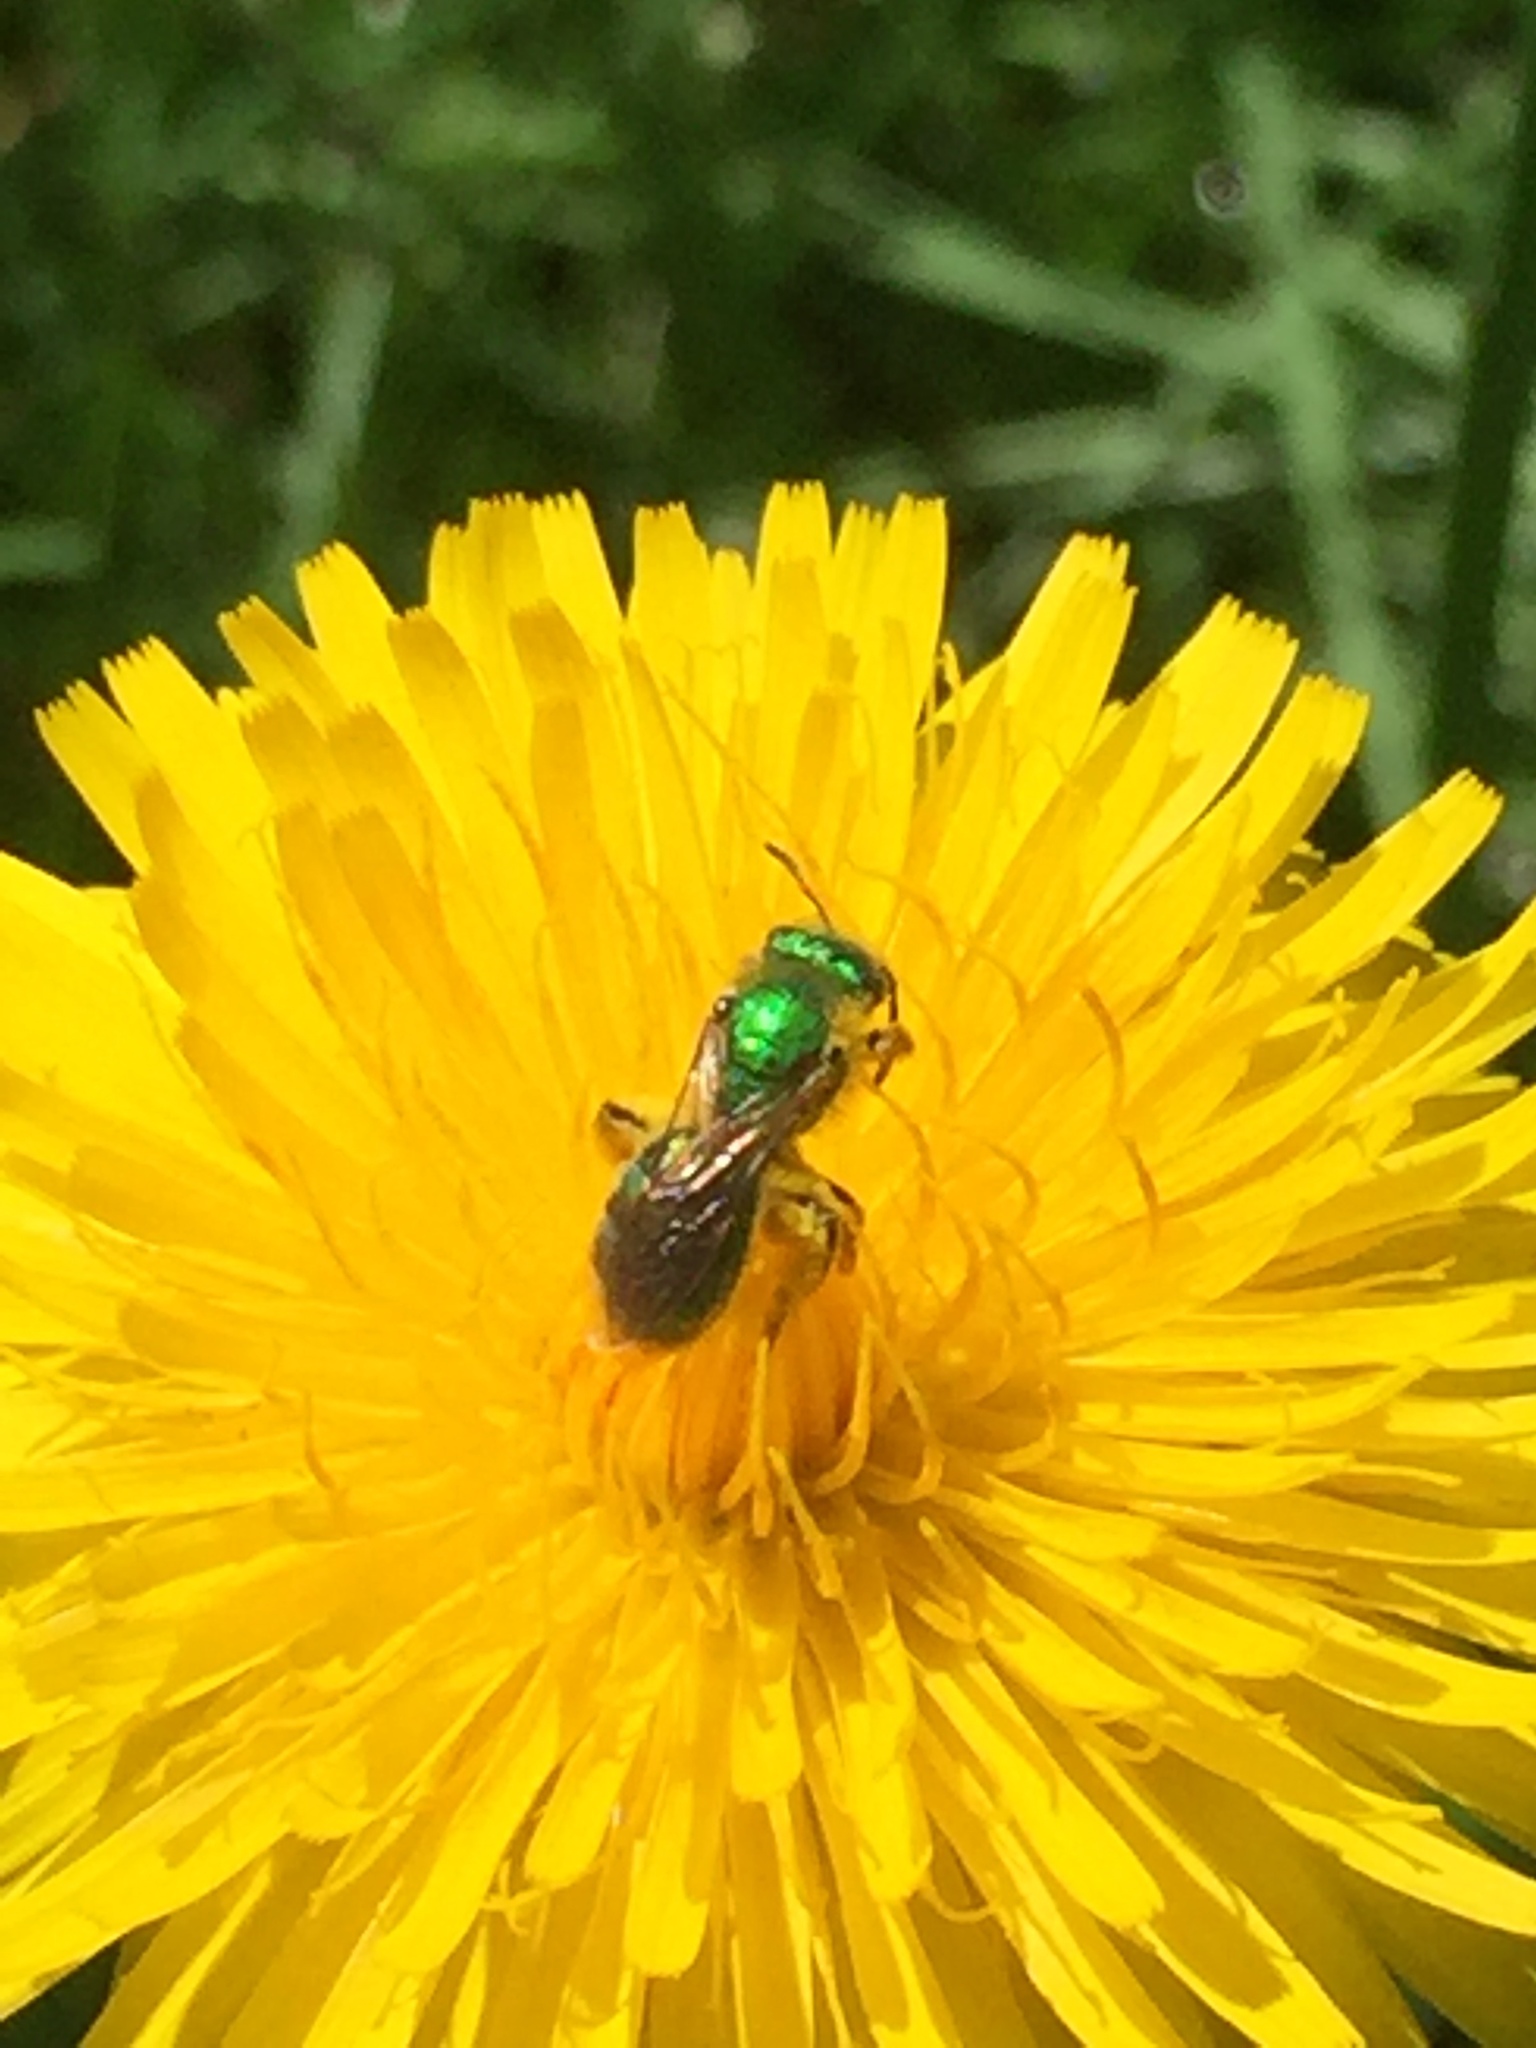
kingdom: Animalia
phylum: Arthropoda
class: Insecta
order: Hymenoptera
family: Halictidae
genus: Agapostemon
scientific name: Agapostemon texanus
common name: Texas striped sweat bee
